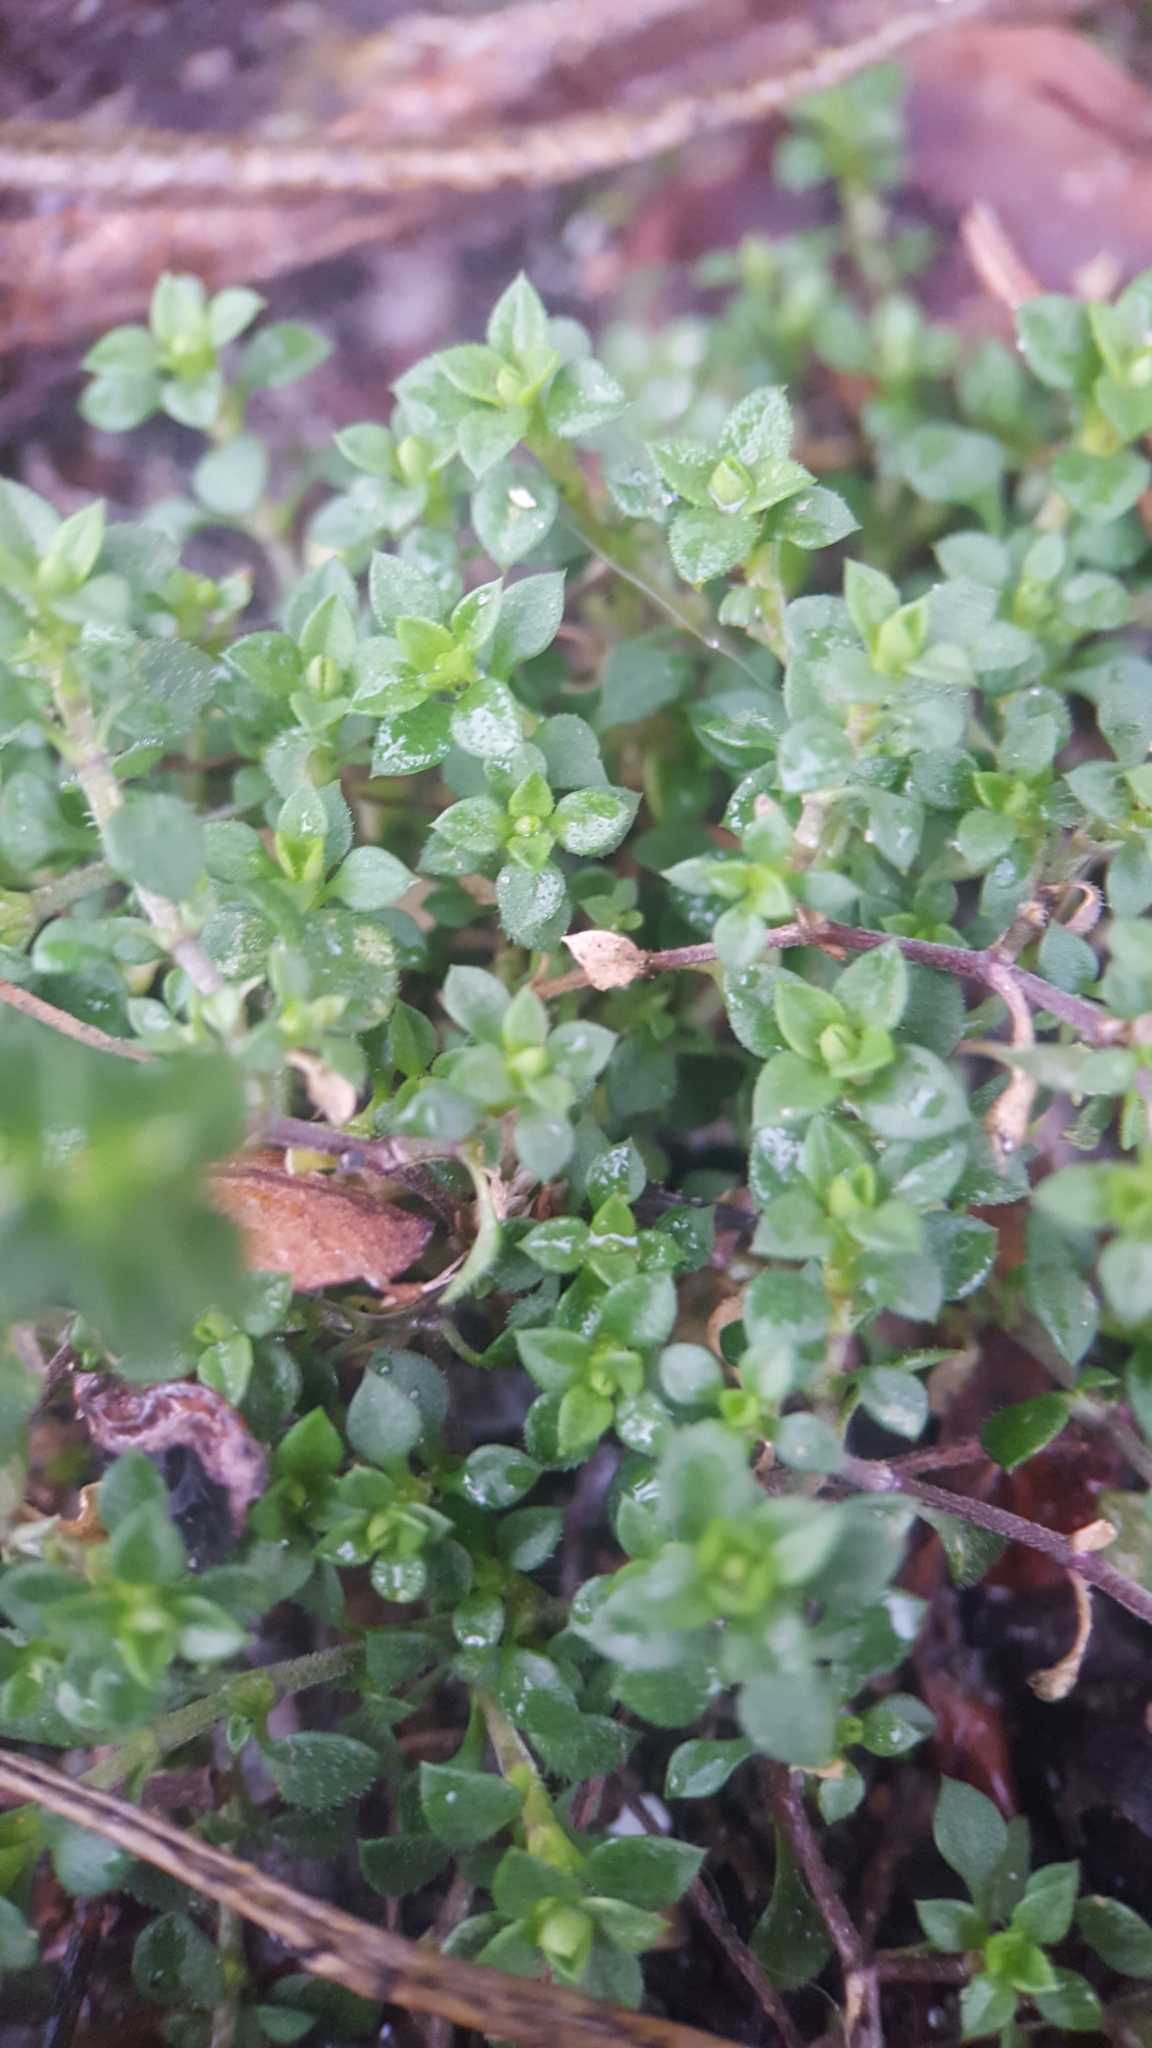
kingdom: Plantae
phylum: Tracheophyta
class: Magnoliopsida
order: Caryophyllales
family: Caryophyllaceae
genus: Arenaria
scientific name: Arenaria serpyllifolia
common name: Thyme-leaved sandwort
